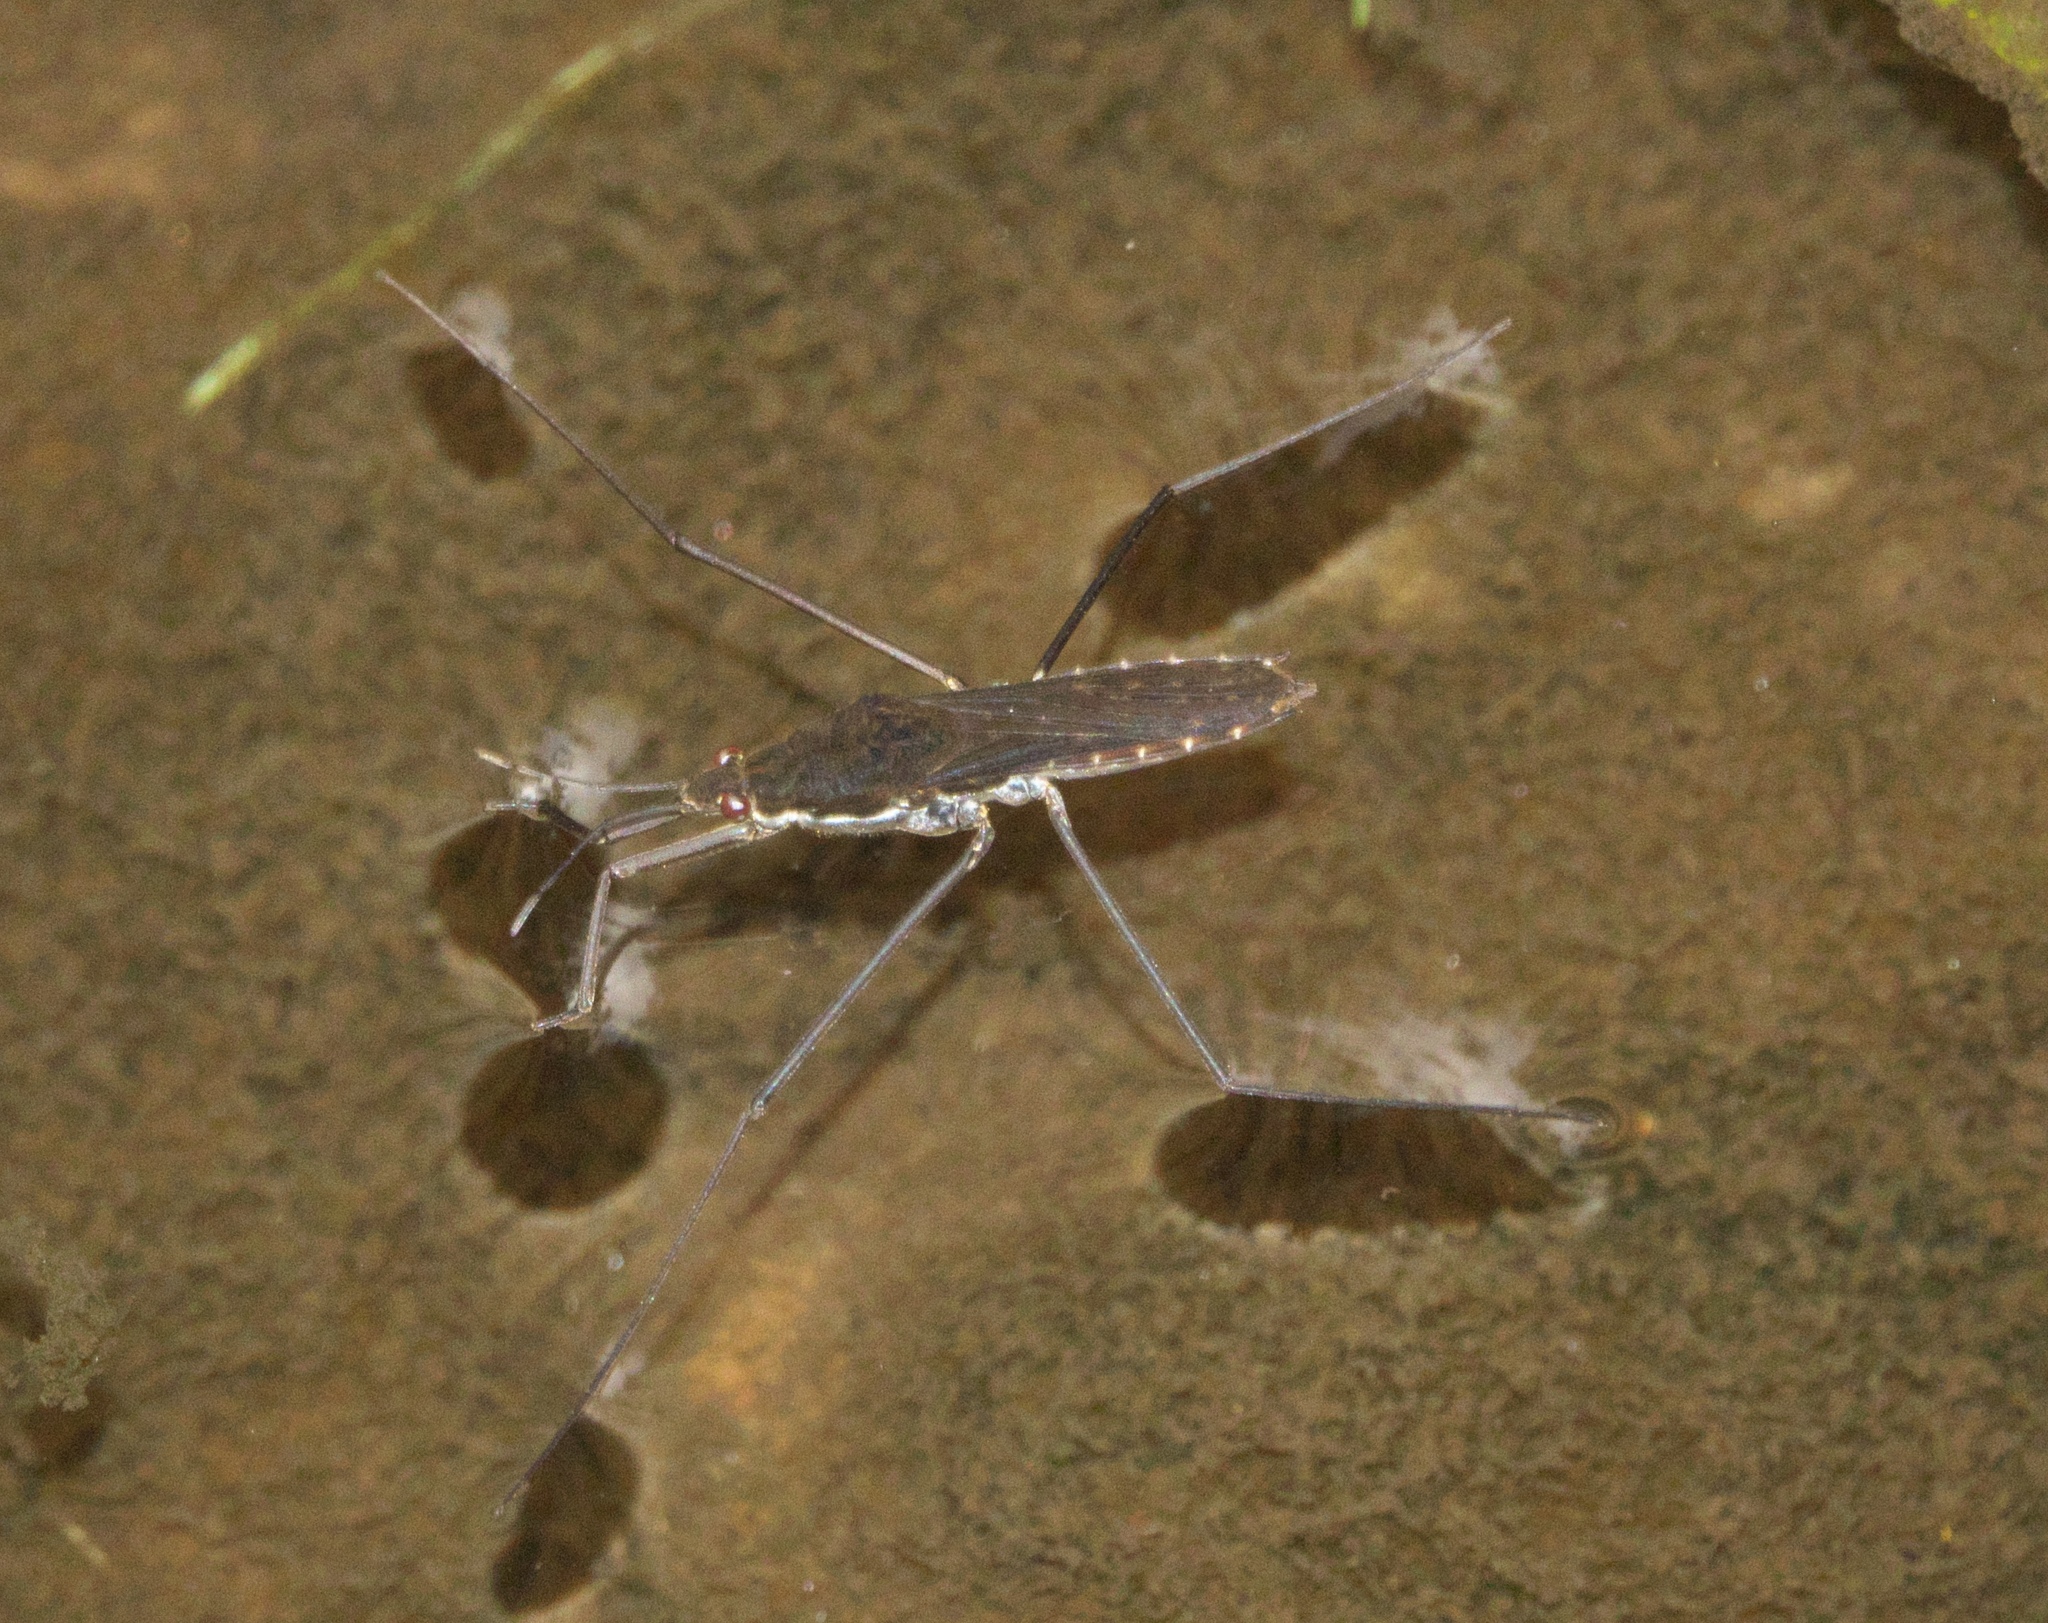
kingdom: Animalia
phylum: Arthropoda
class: Insecta
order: Hemiptera
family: Gerridae
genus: Aquarius
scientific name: Aquarius remigis
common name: Common water strider
